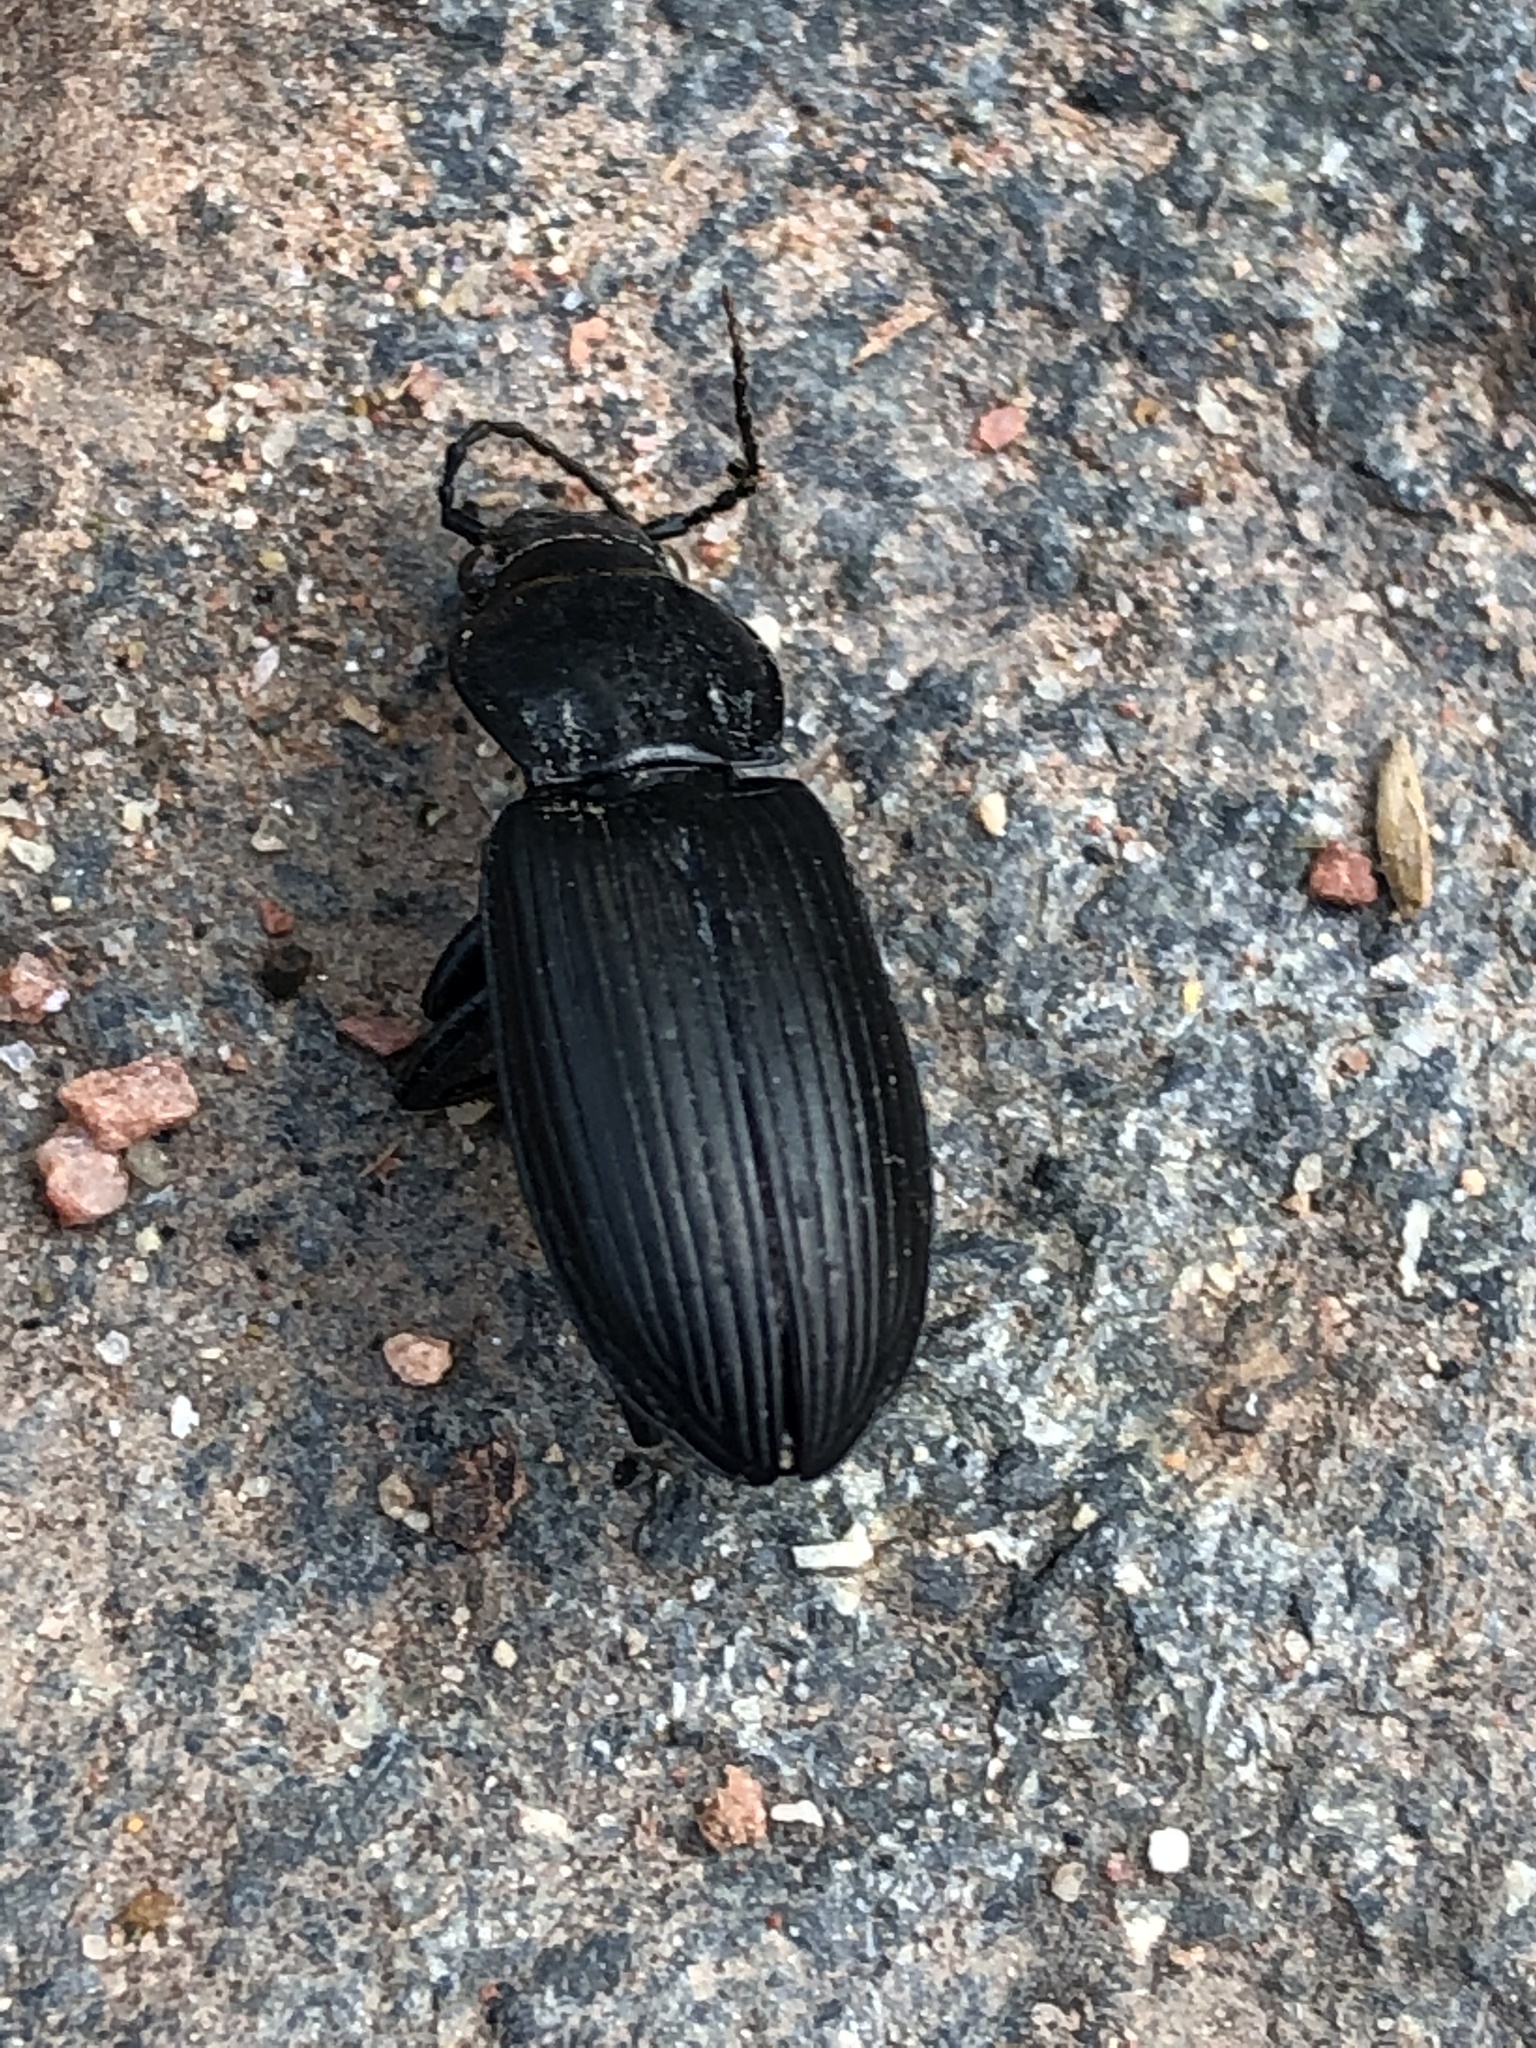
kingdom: Animalia
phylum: Arthropoda
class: Insecta
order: Coleoptera
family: Carabidae
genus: Pterostichus
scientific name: Pterostichus melanarius
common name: European dark harp ground beetle
